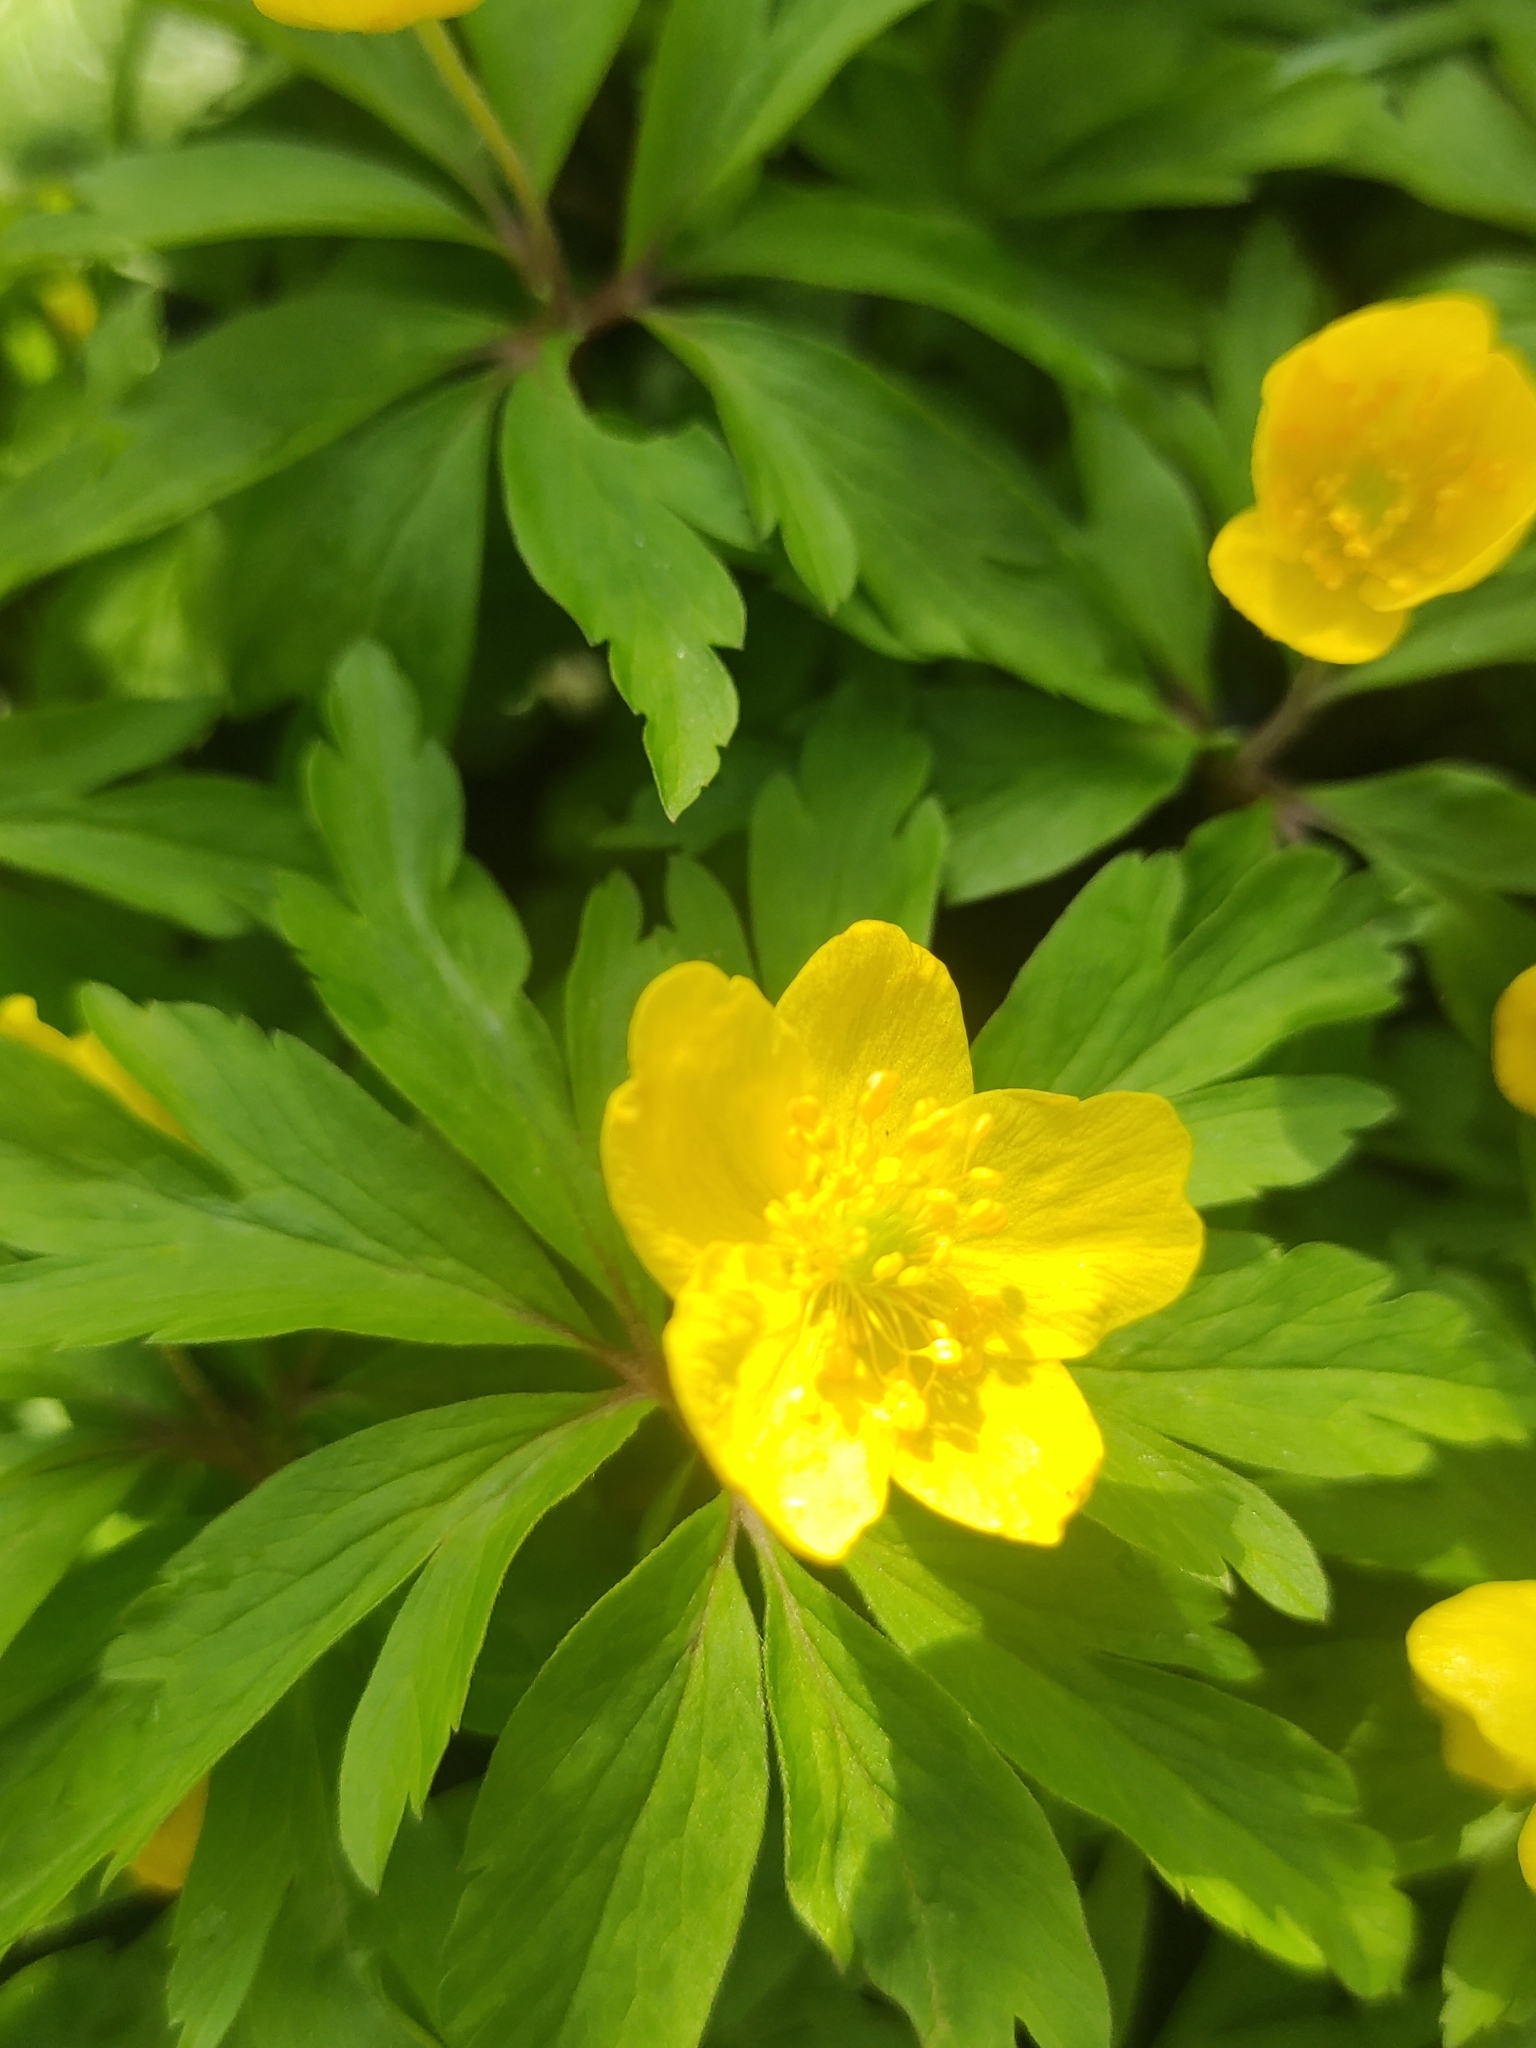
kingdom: Plantae
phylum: Tracheophyta
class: Magnoliopsida
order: Ranunculales
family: Ranunculaceae
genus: Anemone
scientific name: Anemone ranunculoides
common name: Yellow anemone
